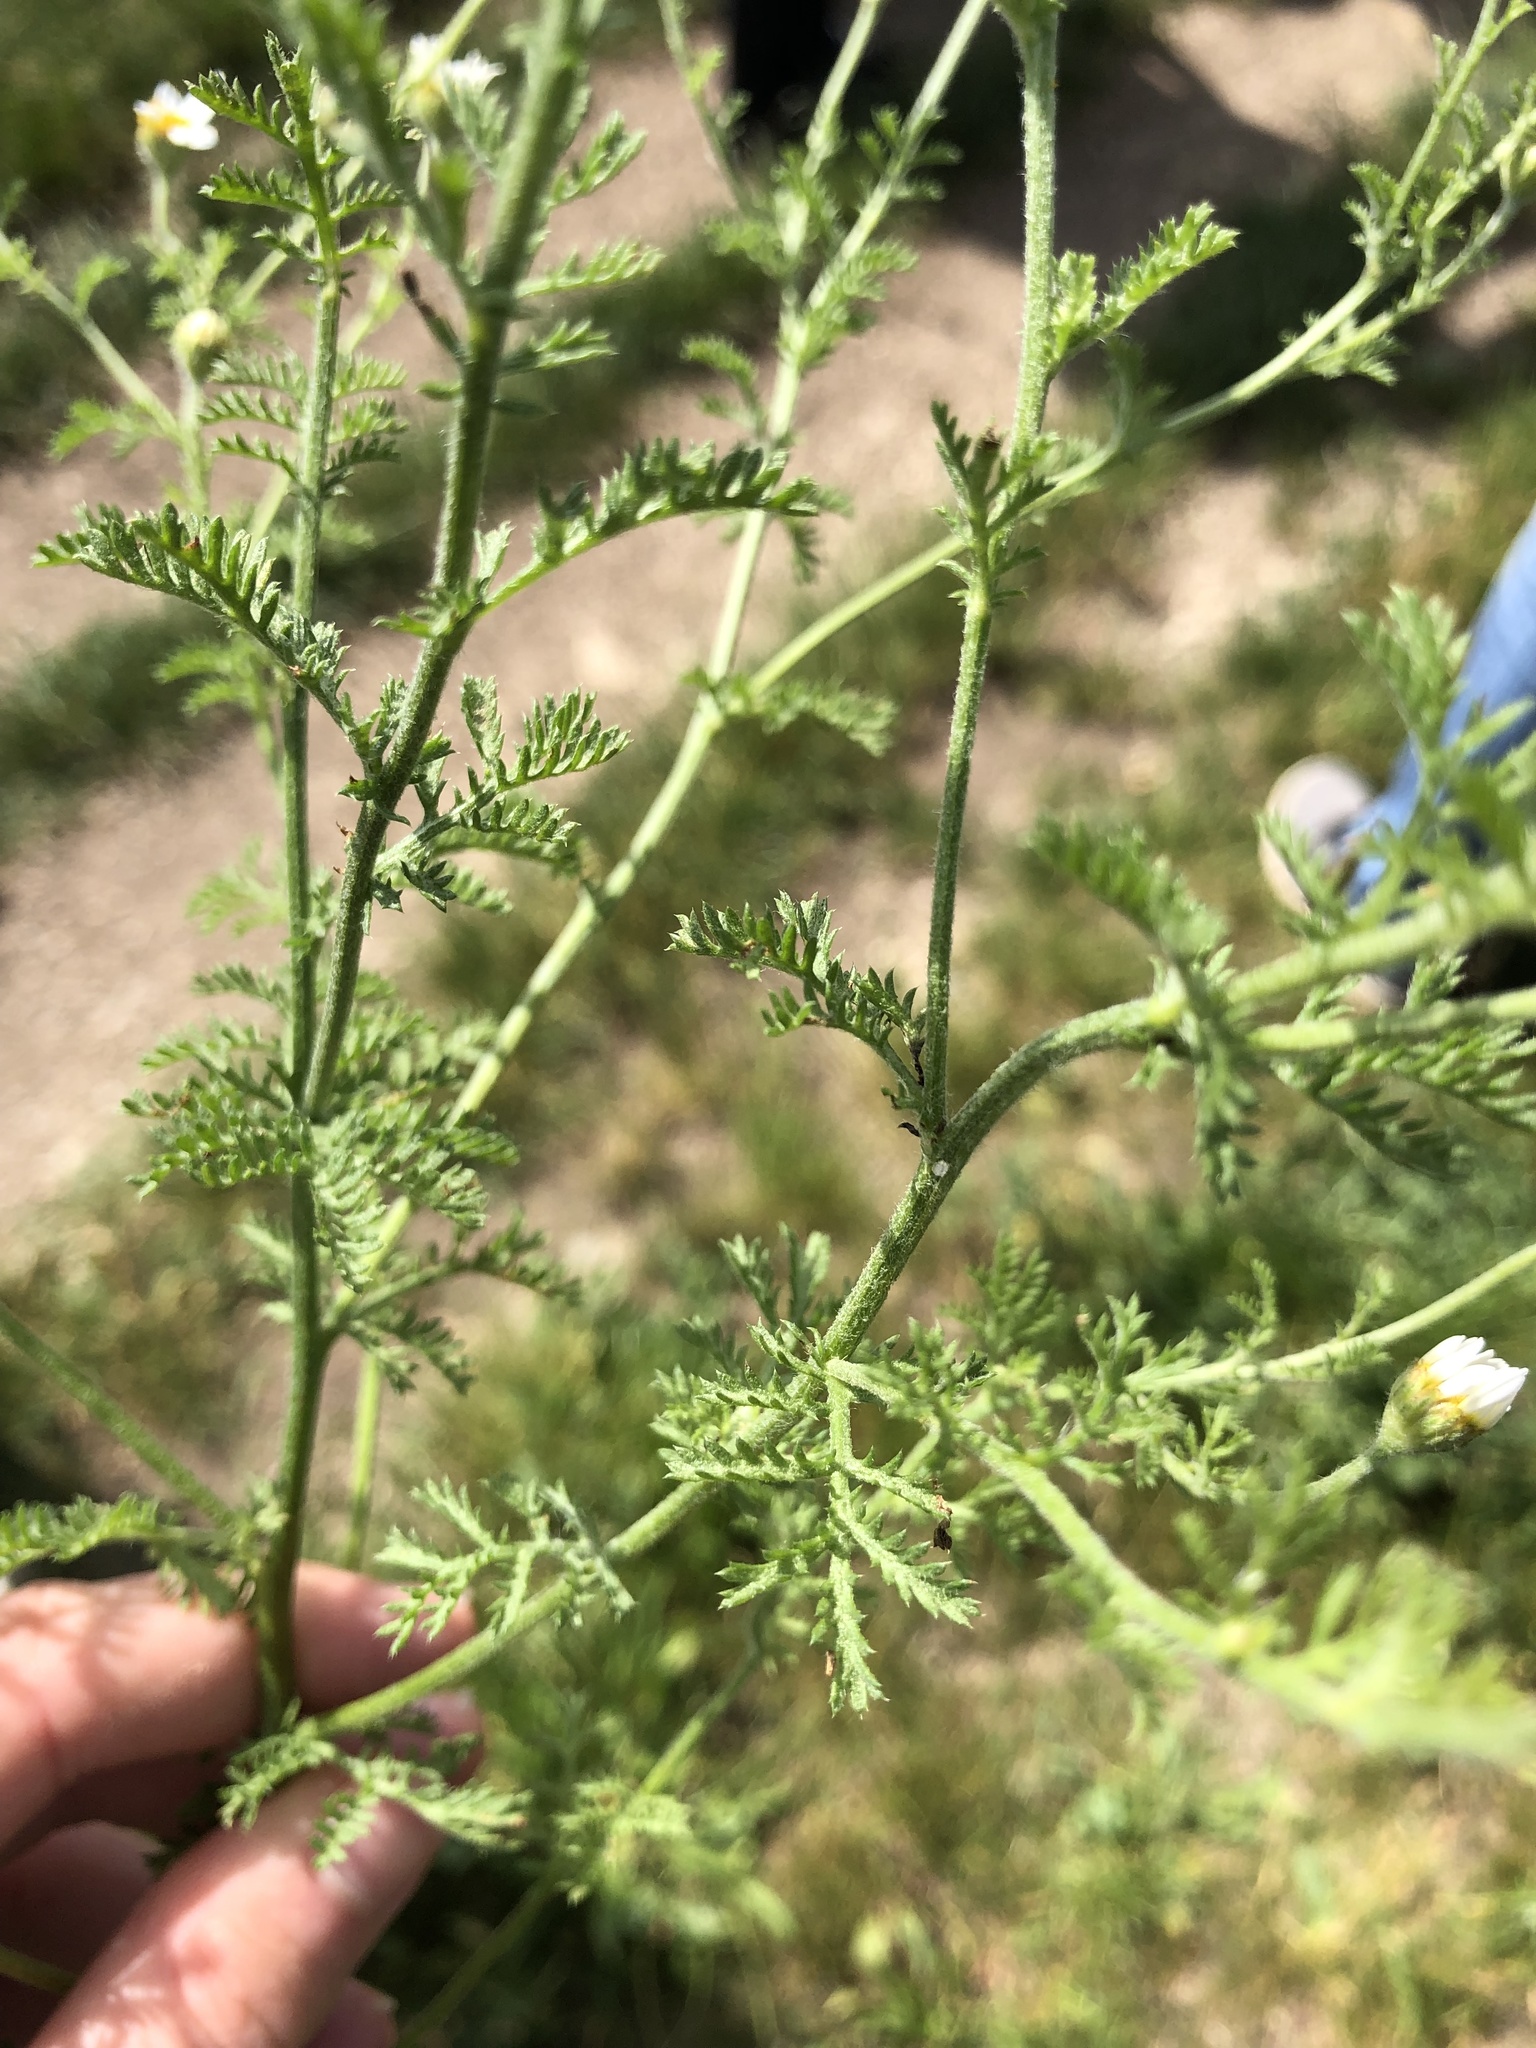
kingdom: Plantae
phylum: Tracheophyta
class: Magnoliopsida
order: Asterales
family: Asteraceae
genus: Cota
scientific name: Cota austriaca
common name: Austrian chamomile
